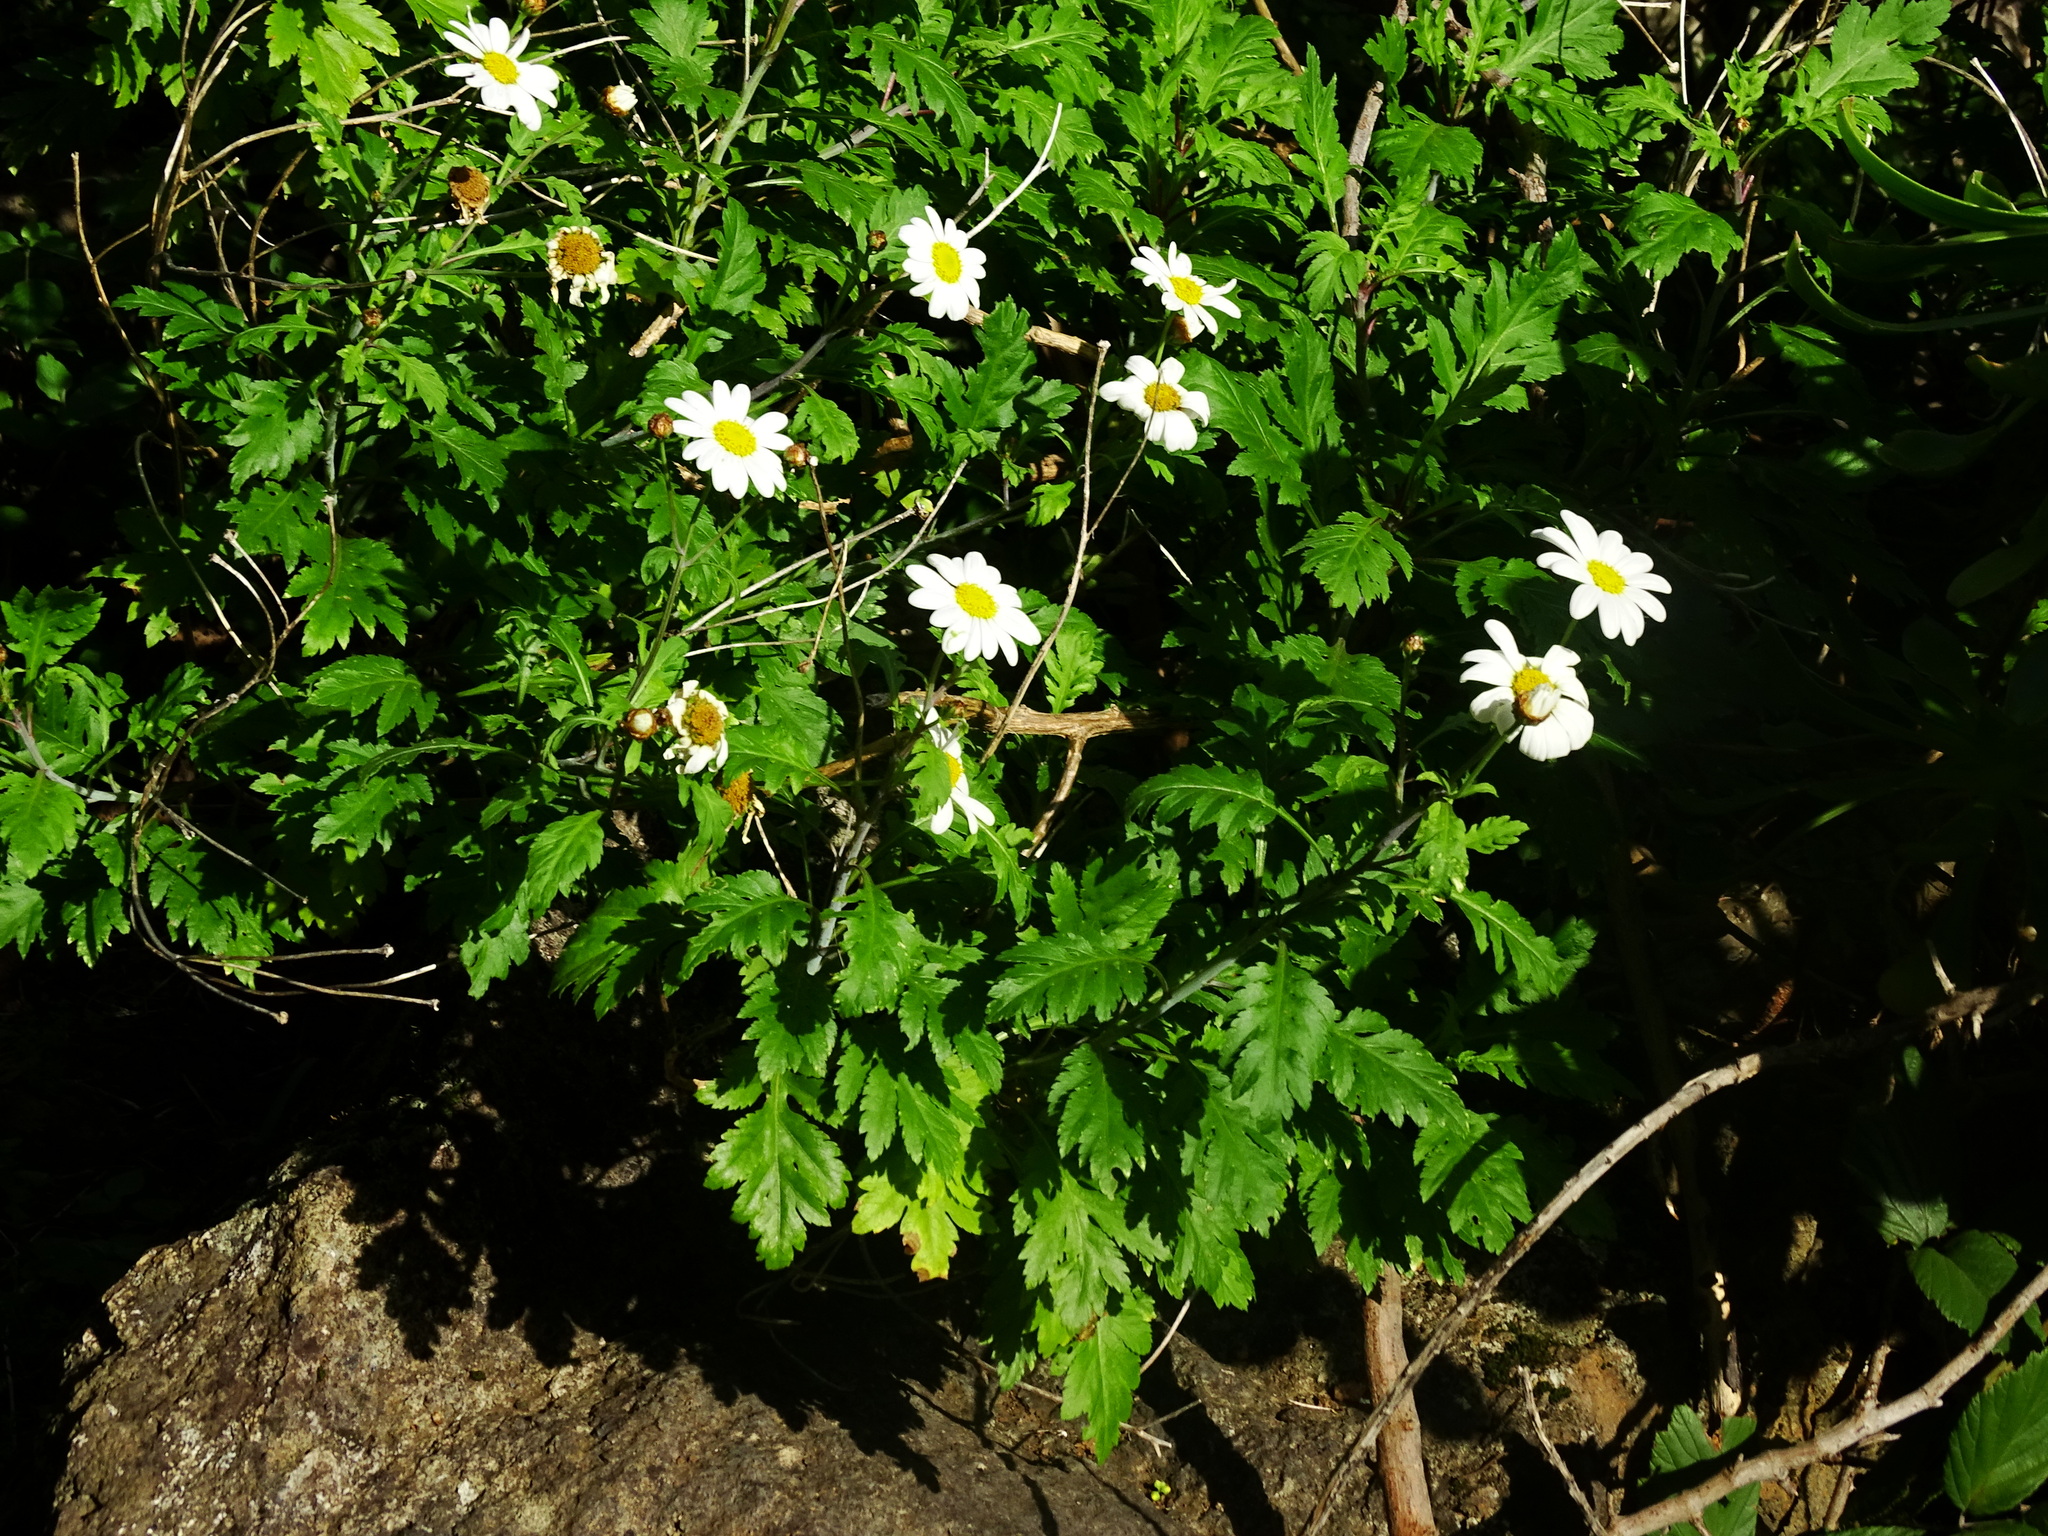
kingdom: Plantae
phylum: Tracheophyta
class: Magnoliopsida
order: Asterales
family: Asteraceae
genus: Argyranthemum
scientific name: Argyranthemum webbii
